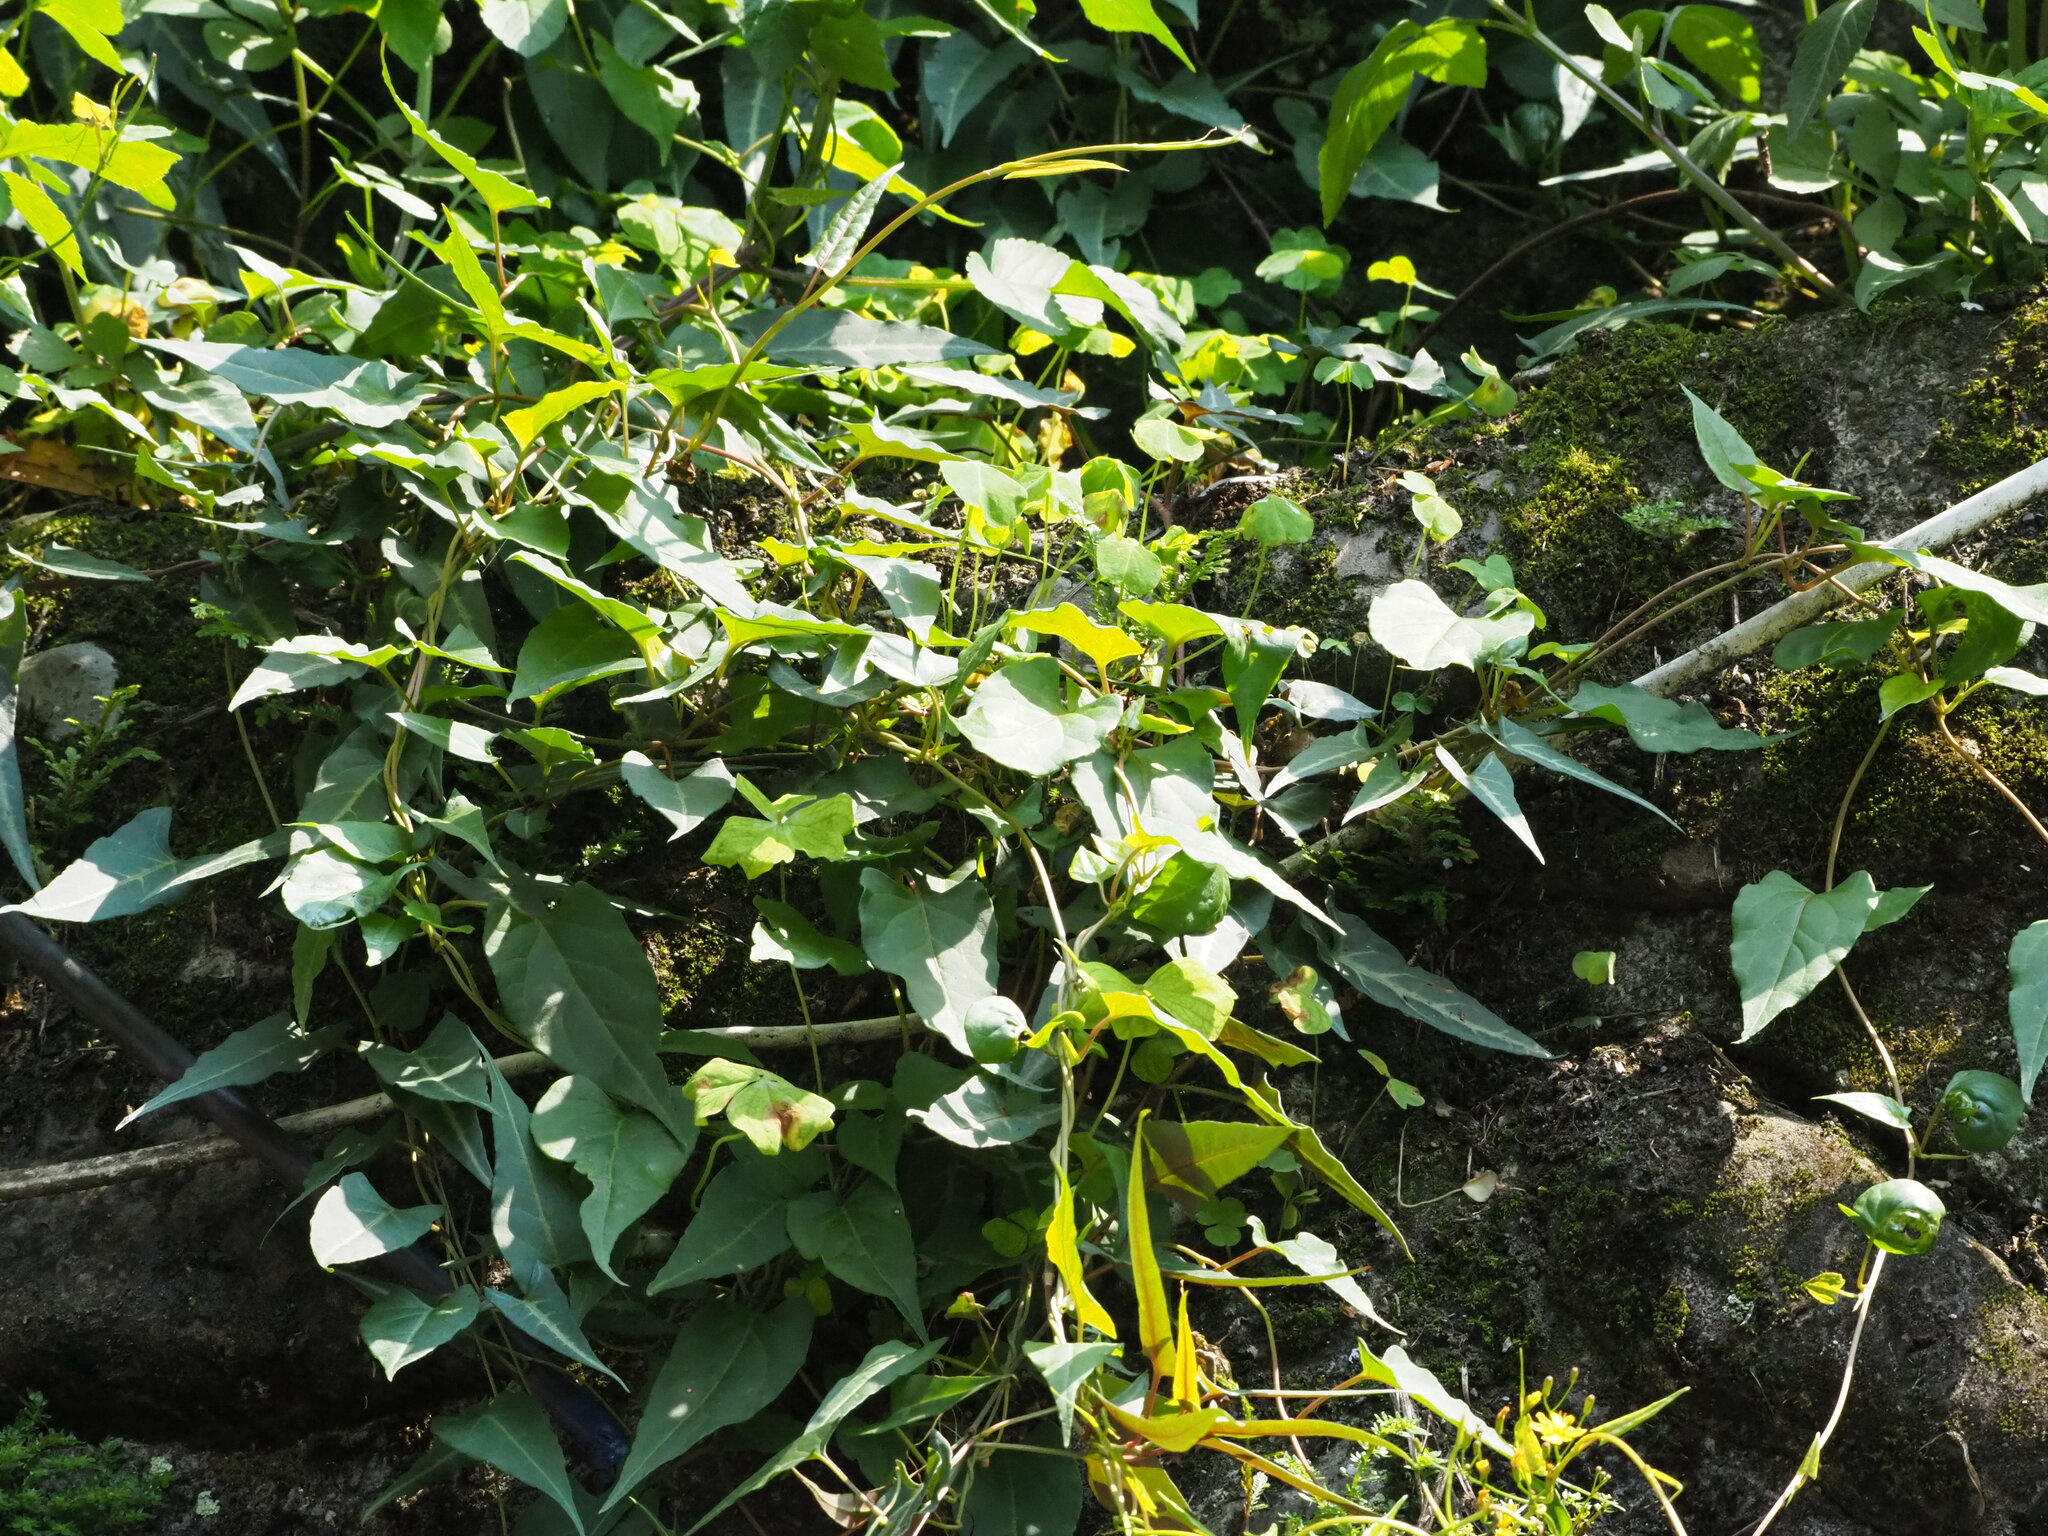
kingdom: Plantae
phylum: Tracheophyta
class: Magnoliopsida
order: Caryophyllales
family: Polygonaceae
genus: Reynoutria
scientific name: Reynoutria multiflora
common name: Chinese fleeceflower
